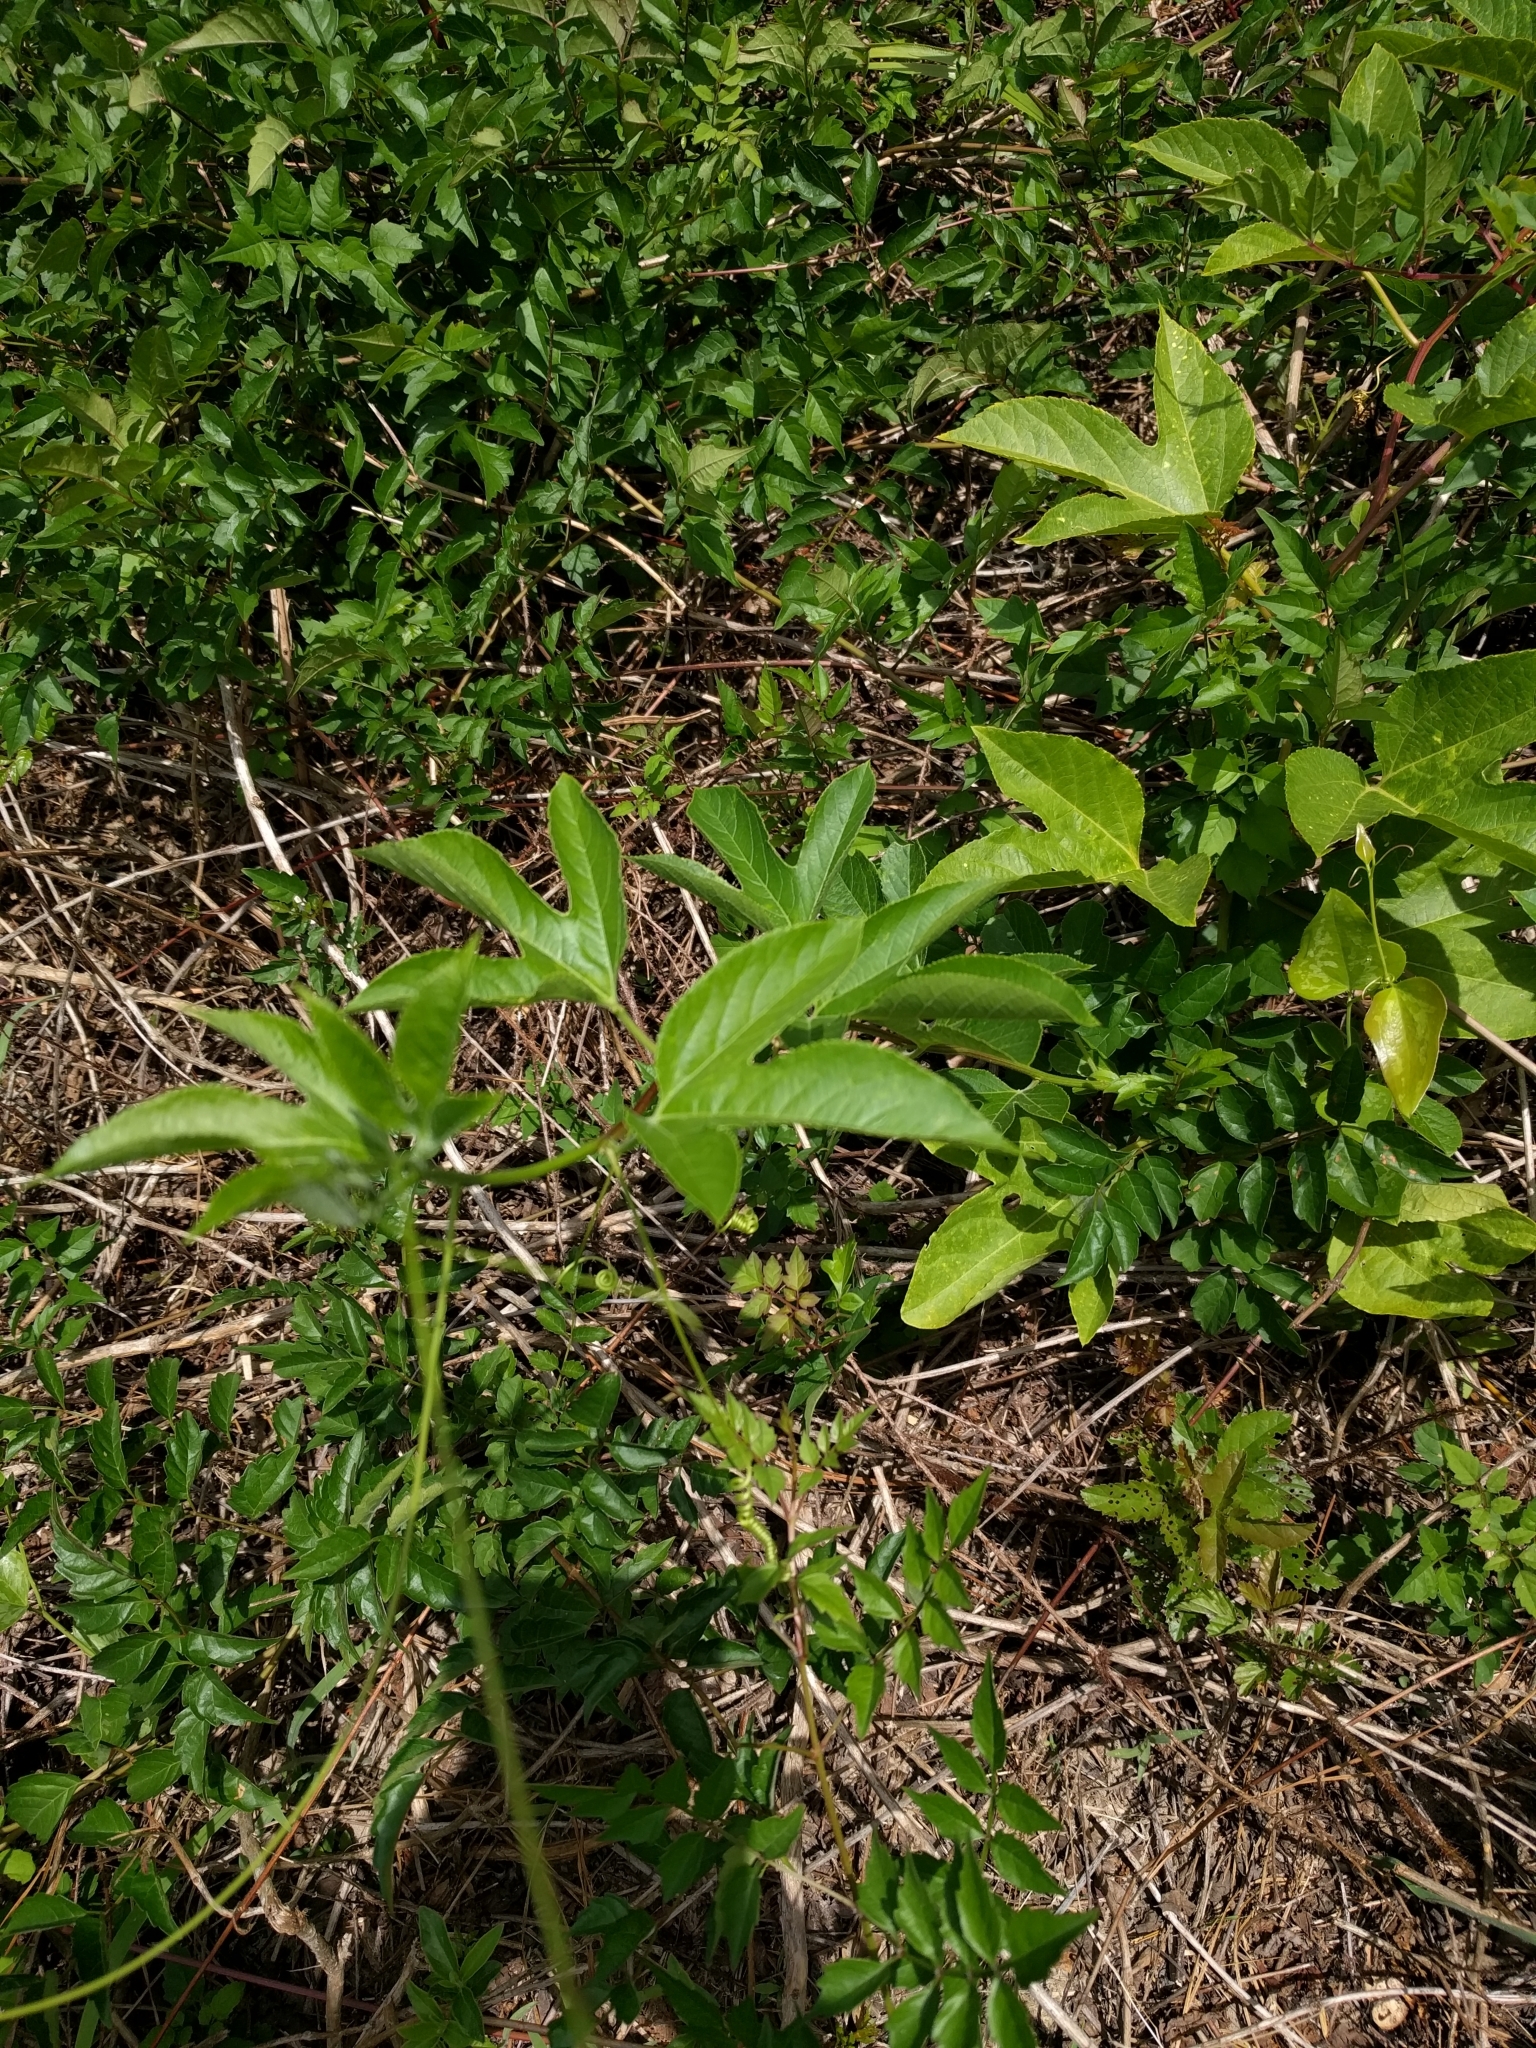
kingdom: Plantae
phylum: Tracheophyta
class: Magnoliopsida
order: Malpighiales
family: Passifloraceae
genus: Passiflora
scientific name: Passiflora incarnata
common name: Apricot-vine
